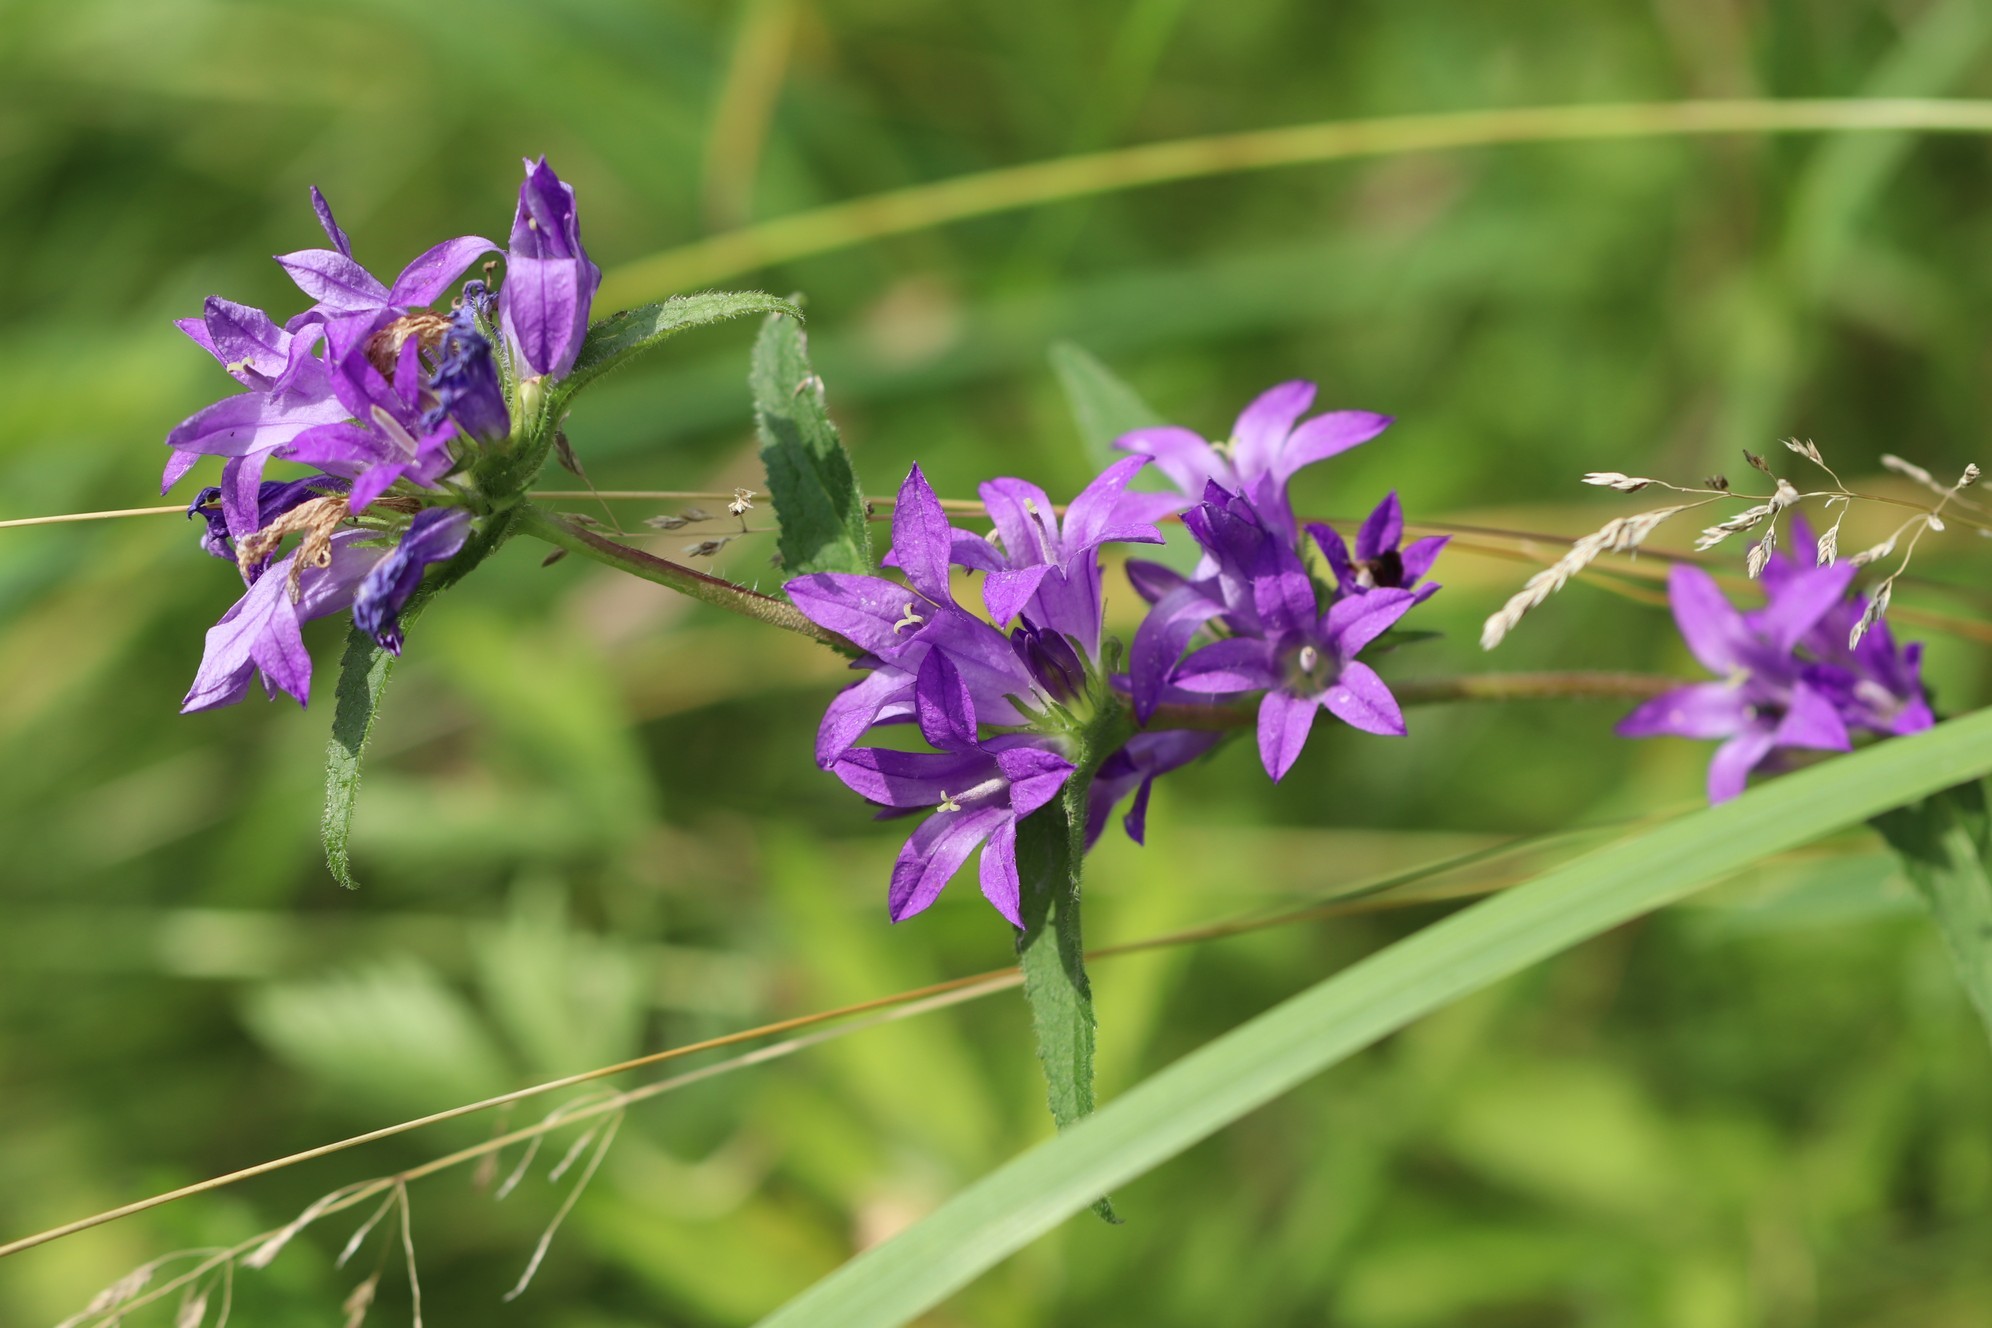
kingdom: Plantae
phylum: Tracheophyta
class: Magnoliopsida
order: Asterales
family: Campanulaceae
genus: Campanula
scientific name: Campanula glomerata
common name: Clustered bellflower
